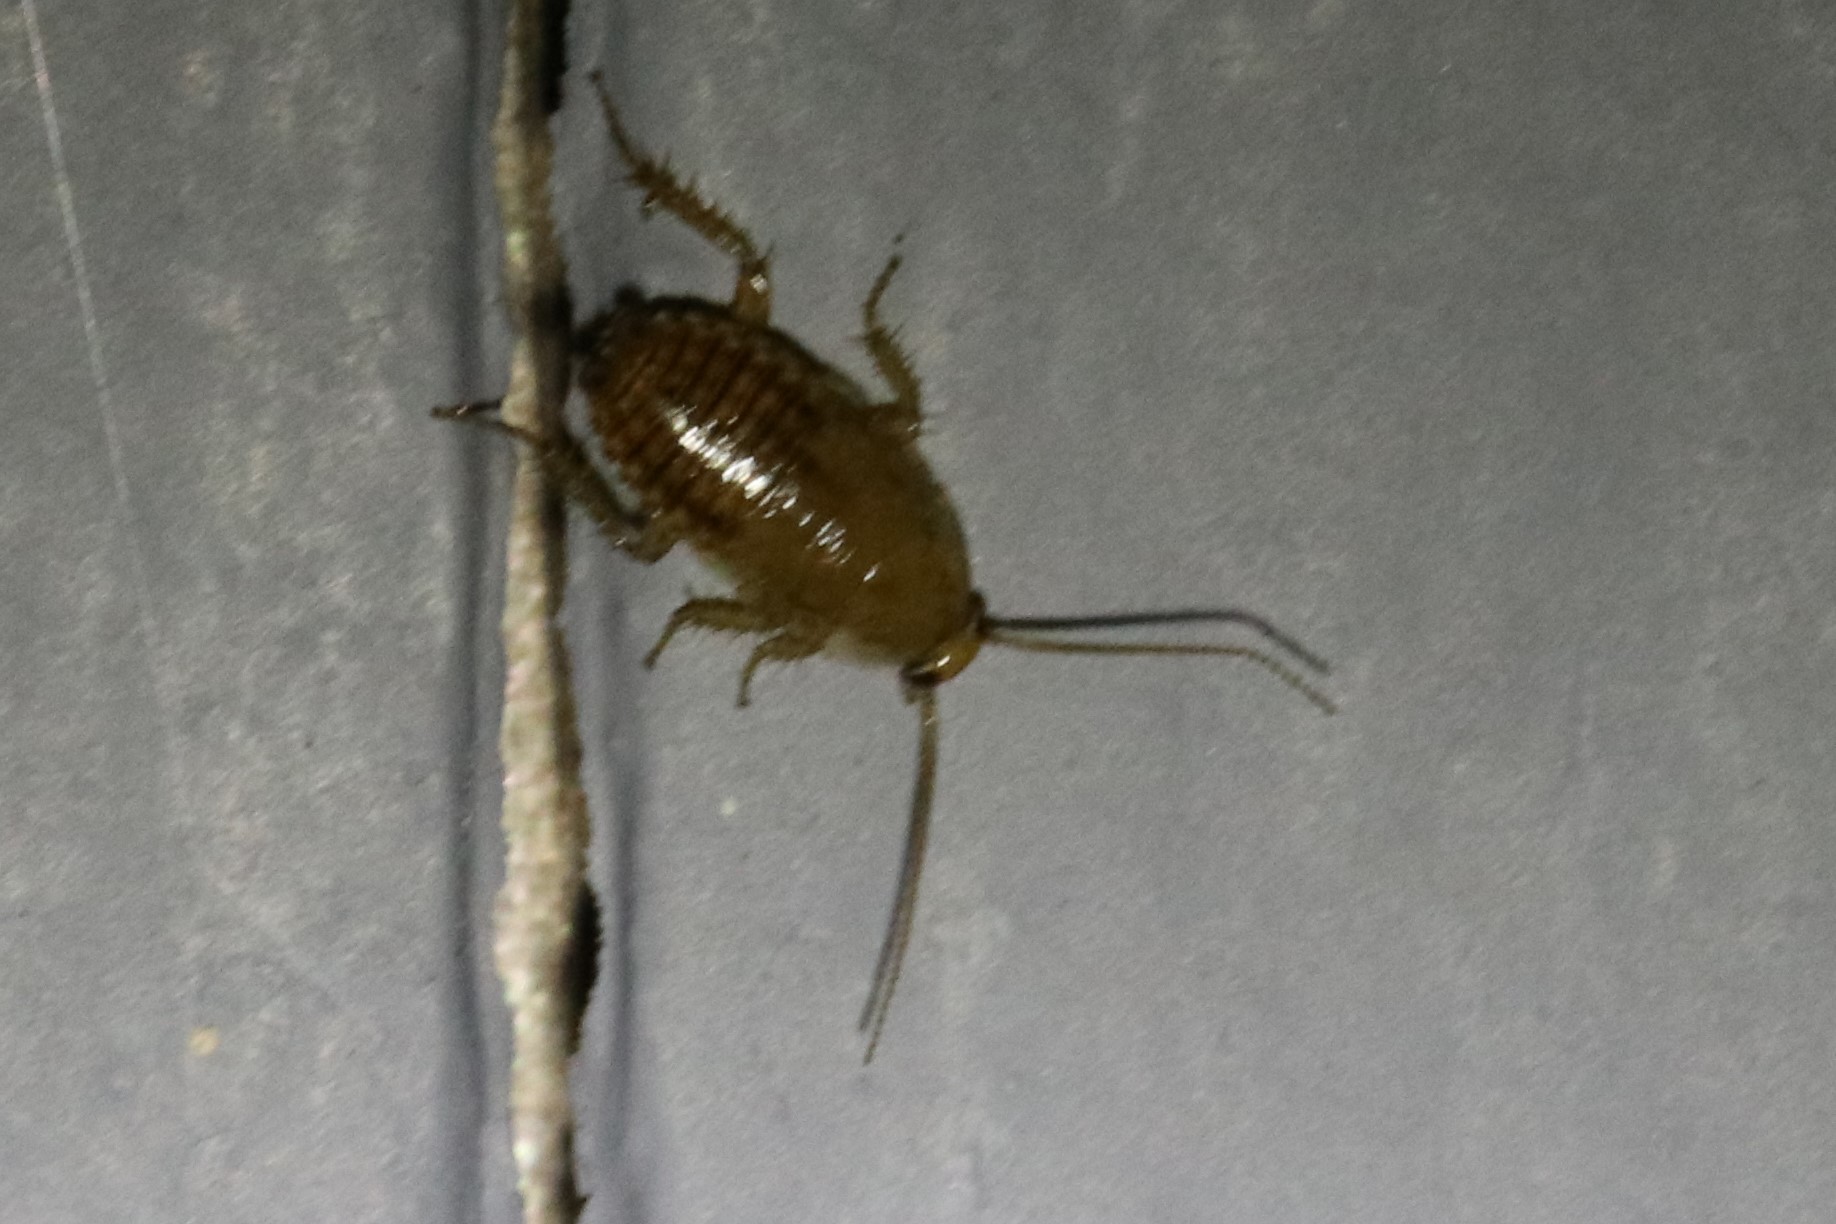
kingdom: Animalia
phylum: Arthropoda
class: Insecta
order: Blattodea
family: Ectobiidae
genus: Ectobius
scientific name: Ectobius lapponicus
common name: Dusky cockroach
